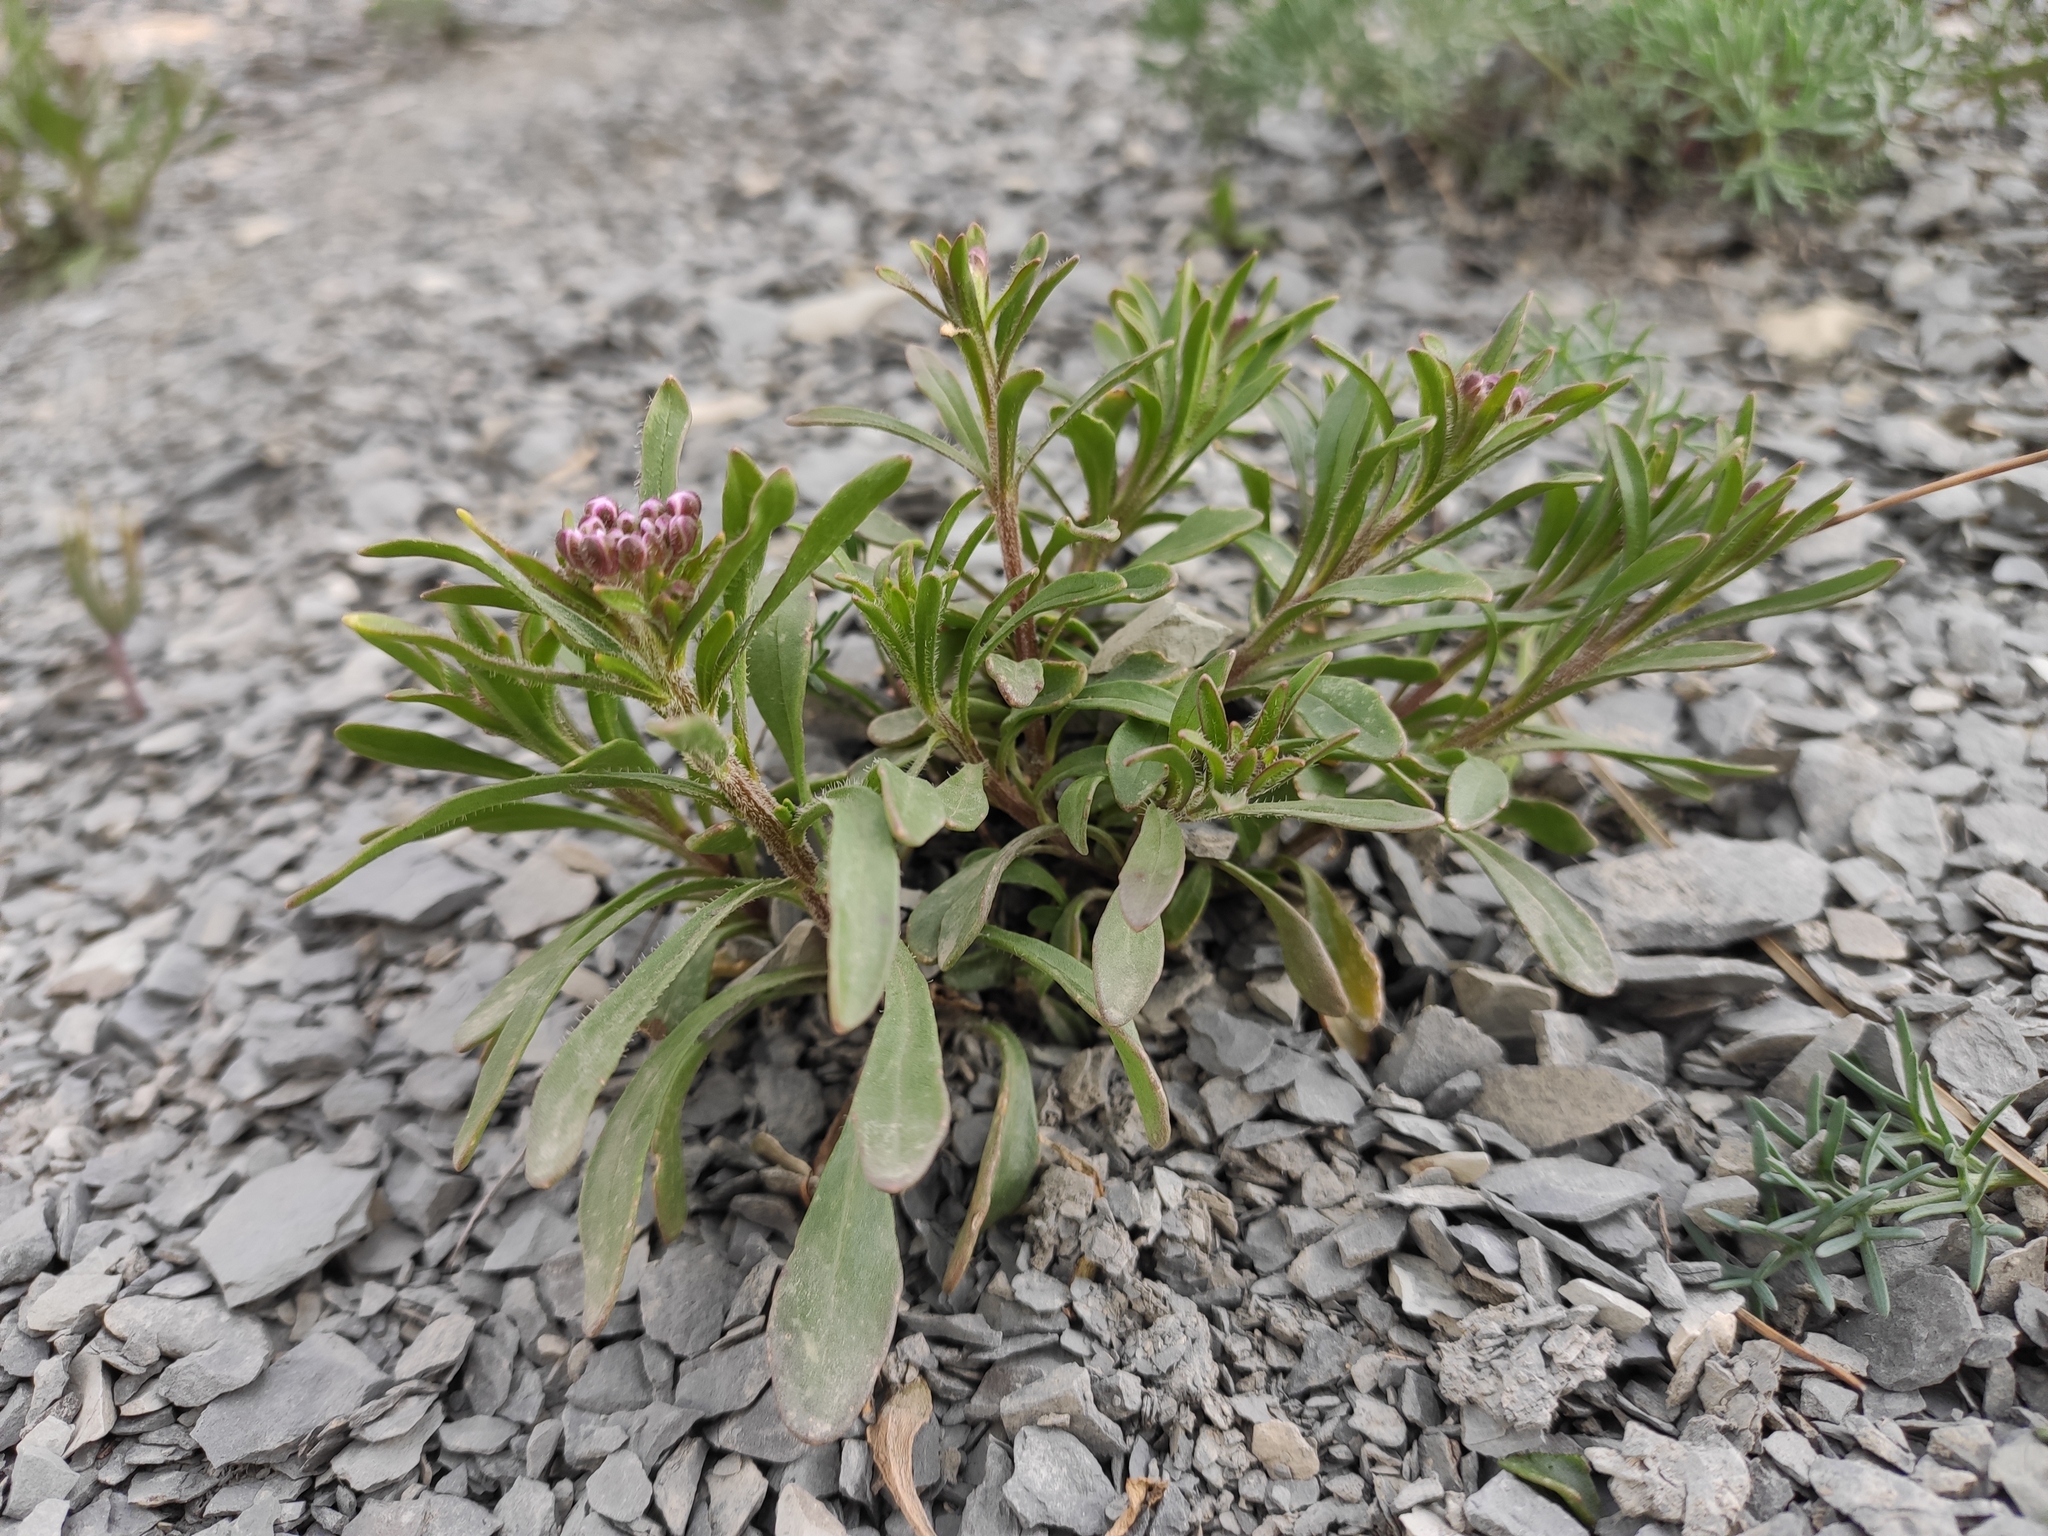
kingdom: Plantae
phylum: Tracheophyta
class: Magnoliopsida
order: Brassicales
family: Brassicaceae
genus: Iberis
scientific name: Iberis simplex
